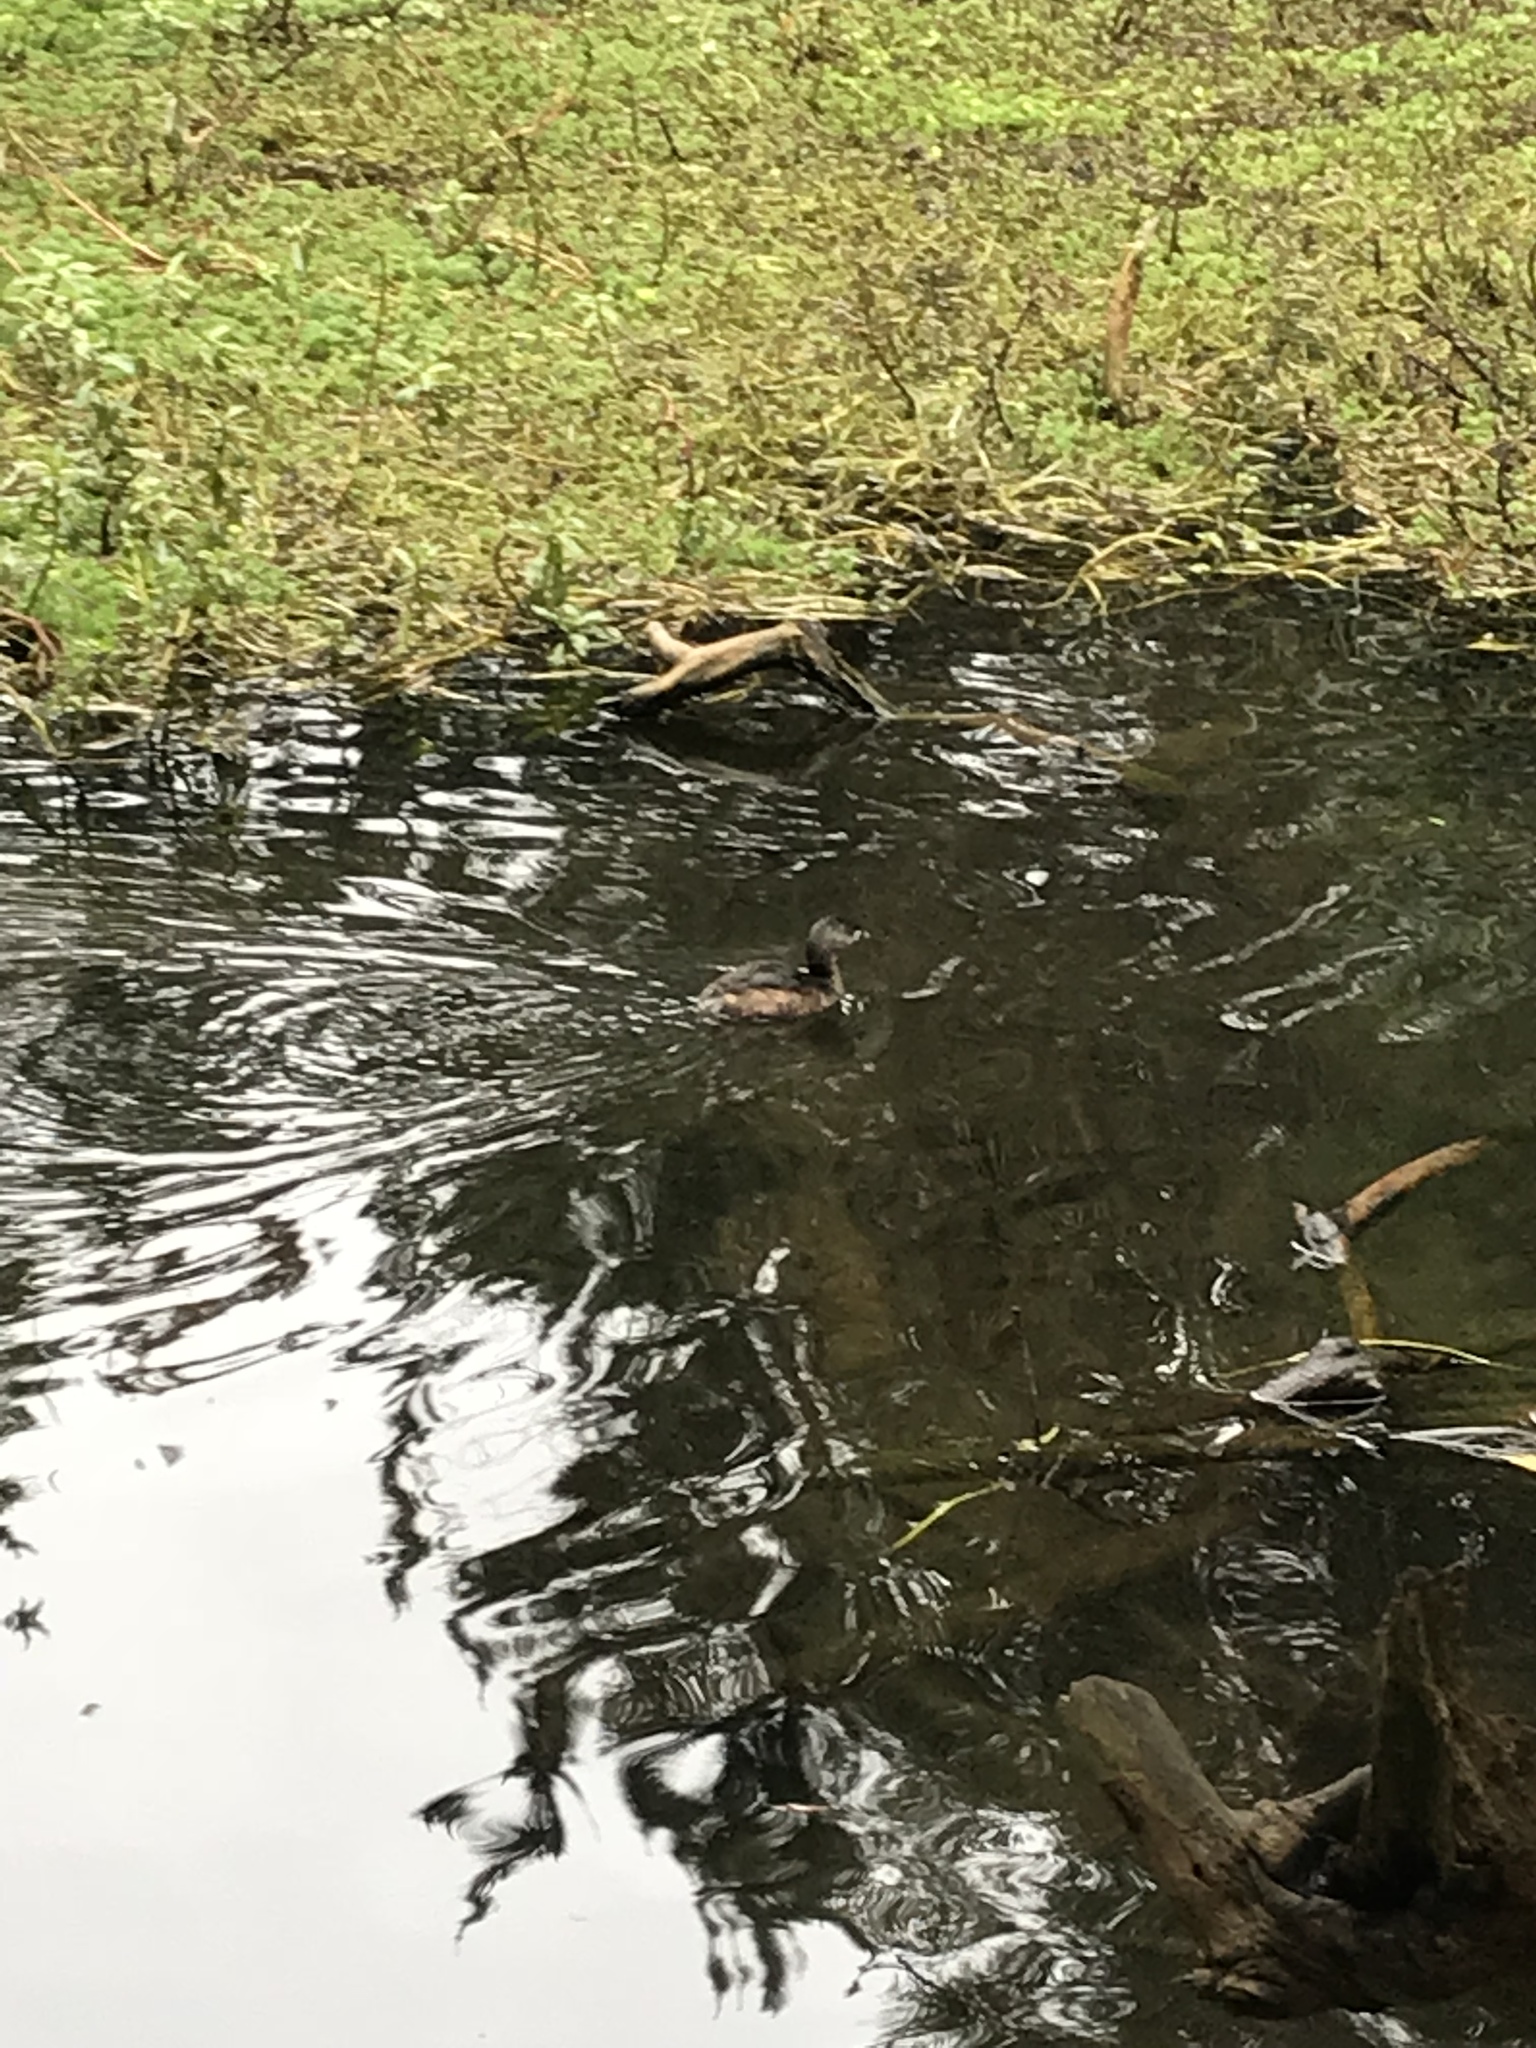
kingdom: Animalia
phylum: Chordata
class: Aves
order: Podicipediformes
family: Podicipedidae
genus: Podilymbus
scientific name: Podilymbus podiceps
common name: Pied-billed grebe
